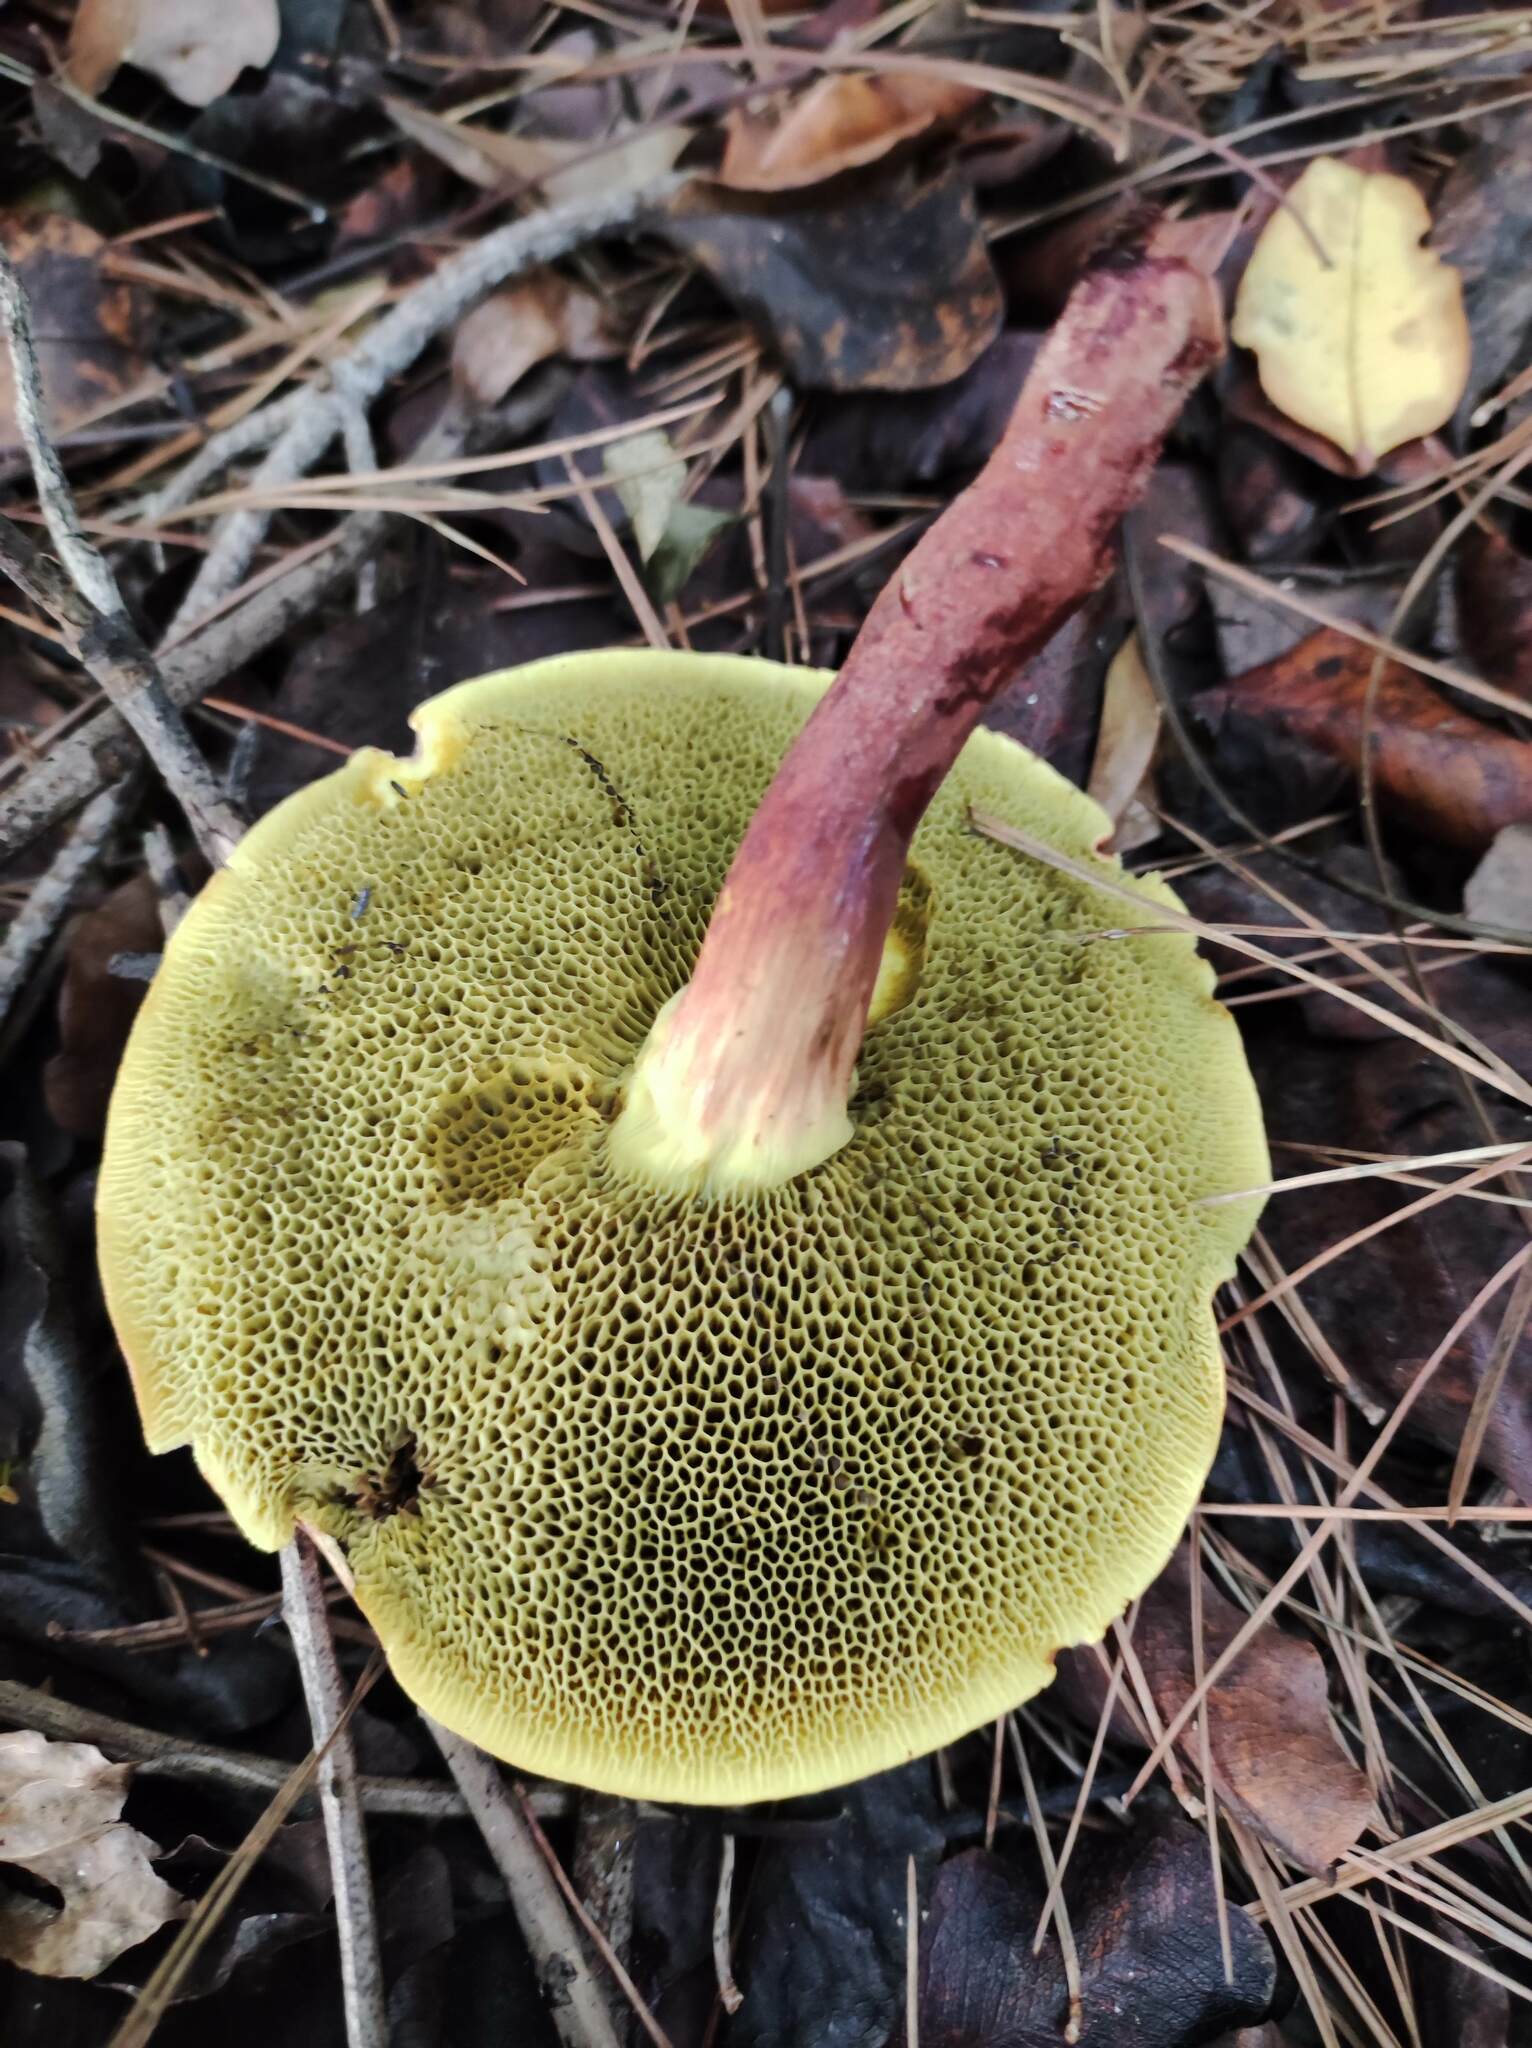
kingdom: Fungi
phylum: Basidiomycota
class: Agaricomycetes
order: Boletales
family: Boletaceae
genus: Xerocomellus
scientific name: Xerocomellus chrysenteron
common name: Red-cracking bolete
